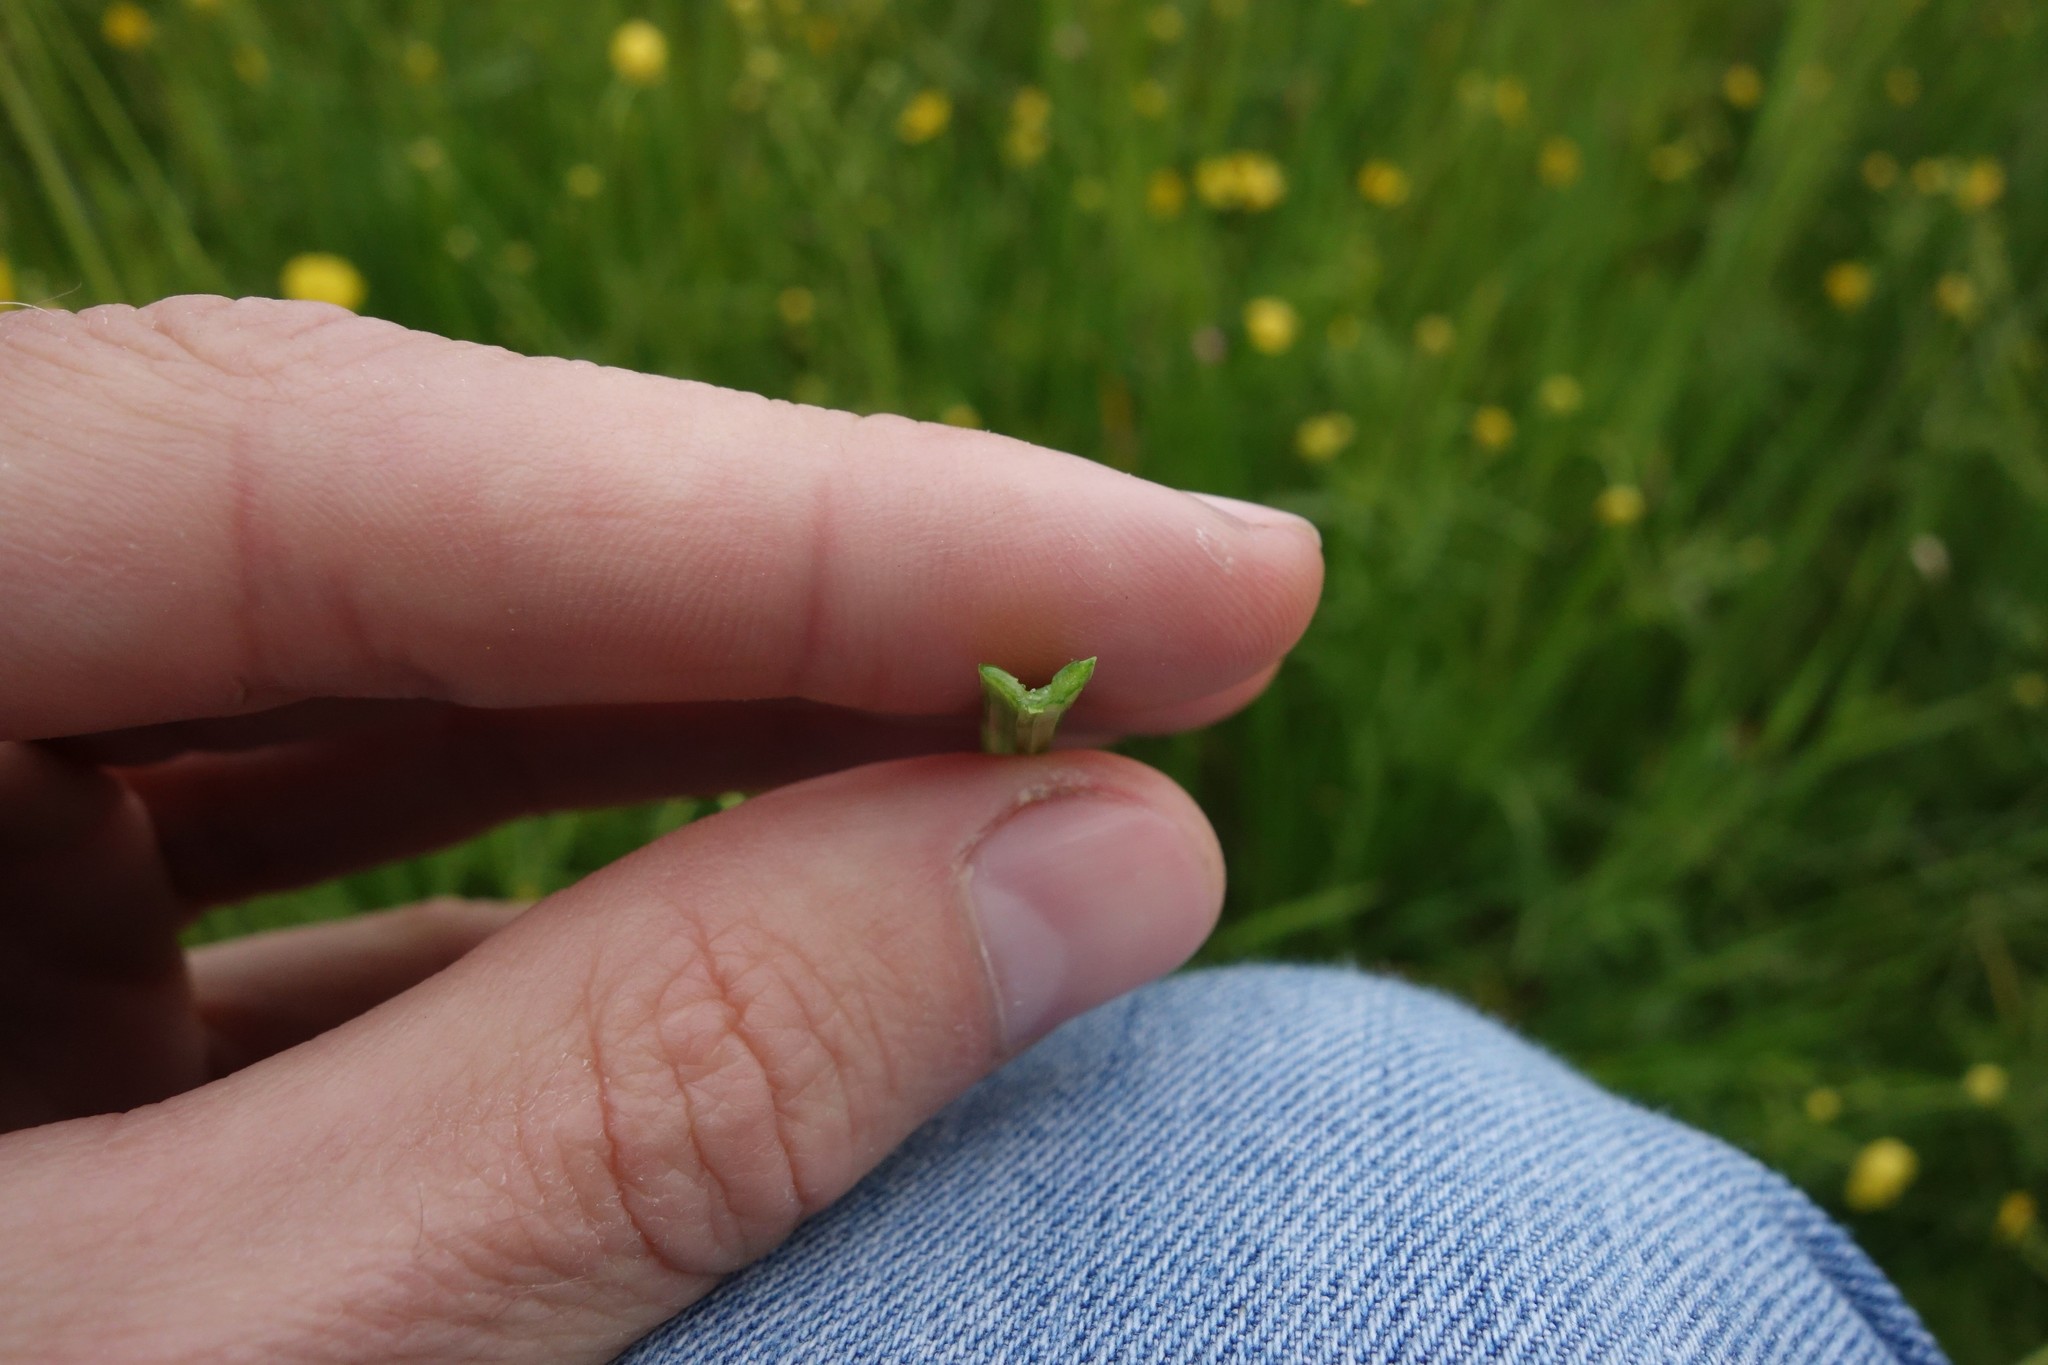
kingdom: Plantae
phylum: Tracheophyta
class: Liliopsida
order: Asparagales
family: Amaryllidaceae
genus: Allium
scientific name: Allium angulosum
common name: Mouse garlic
